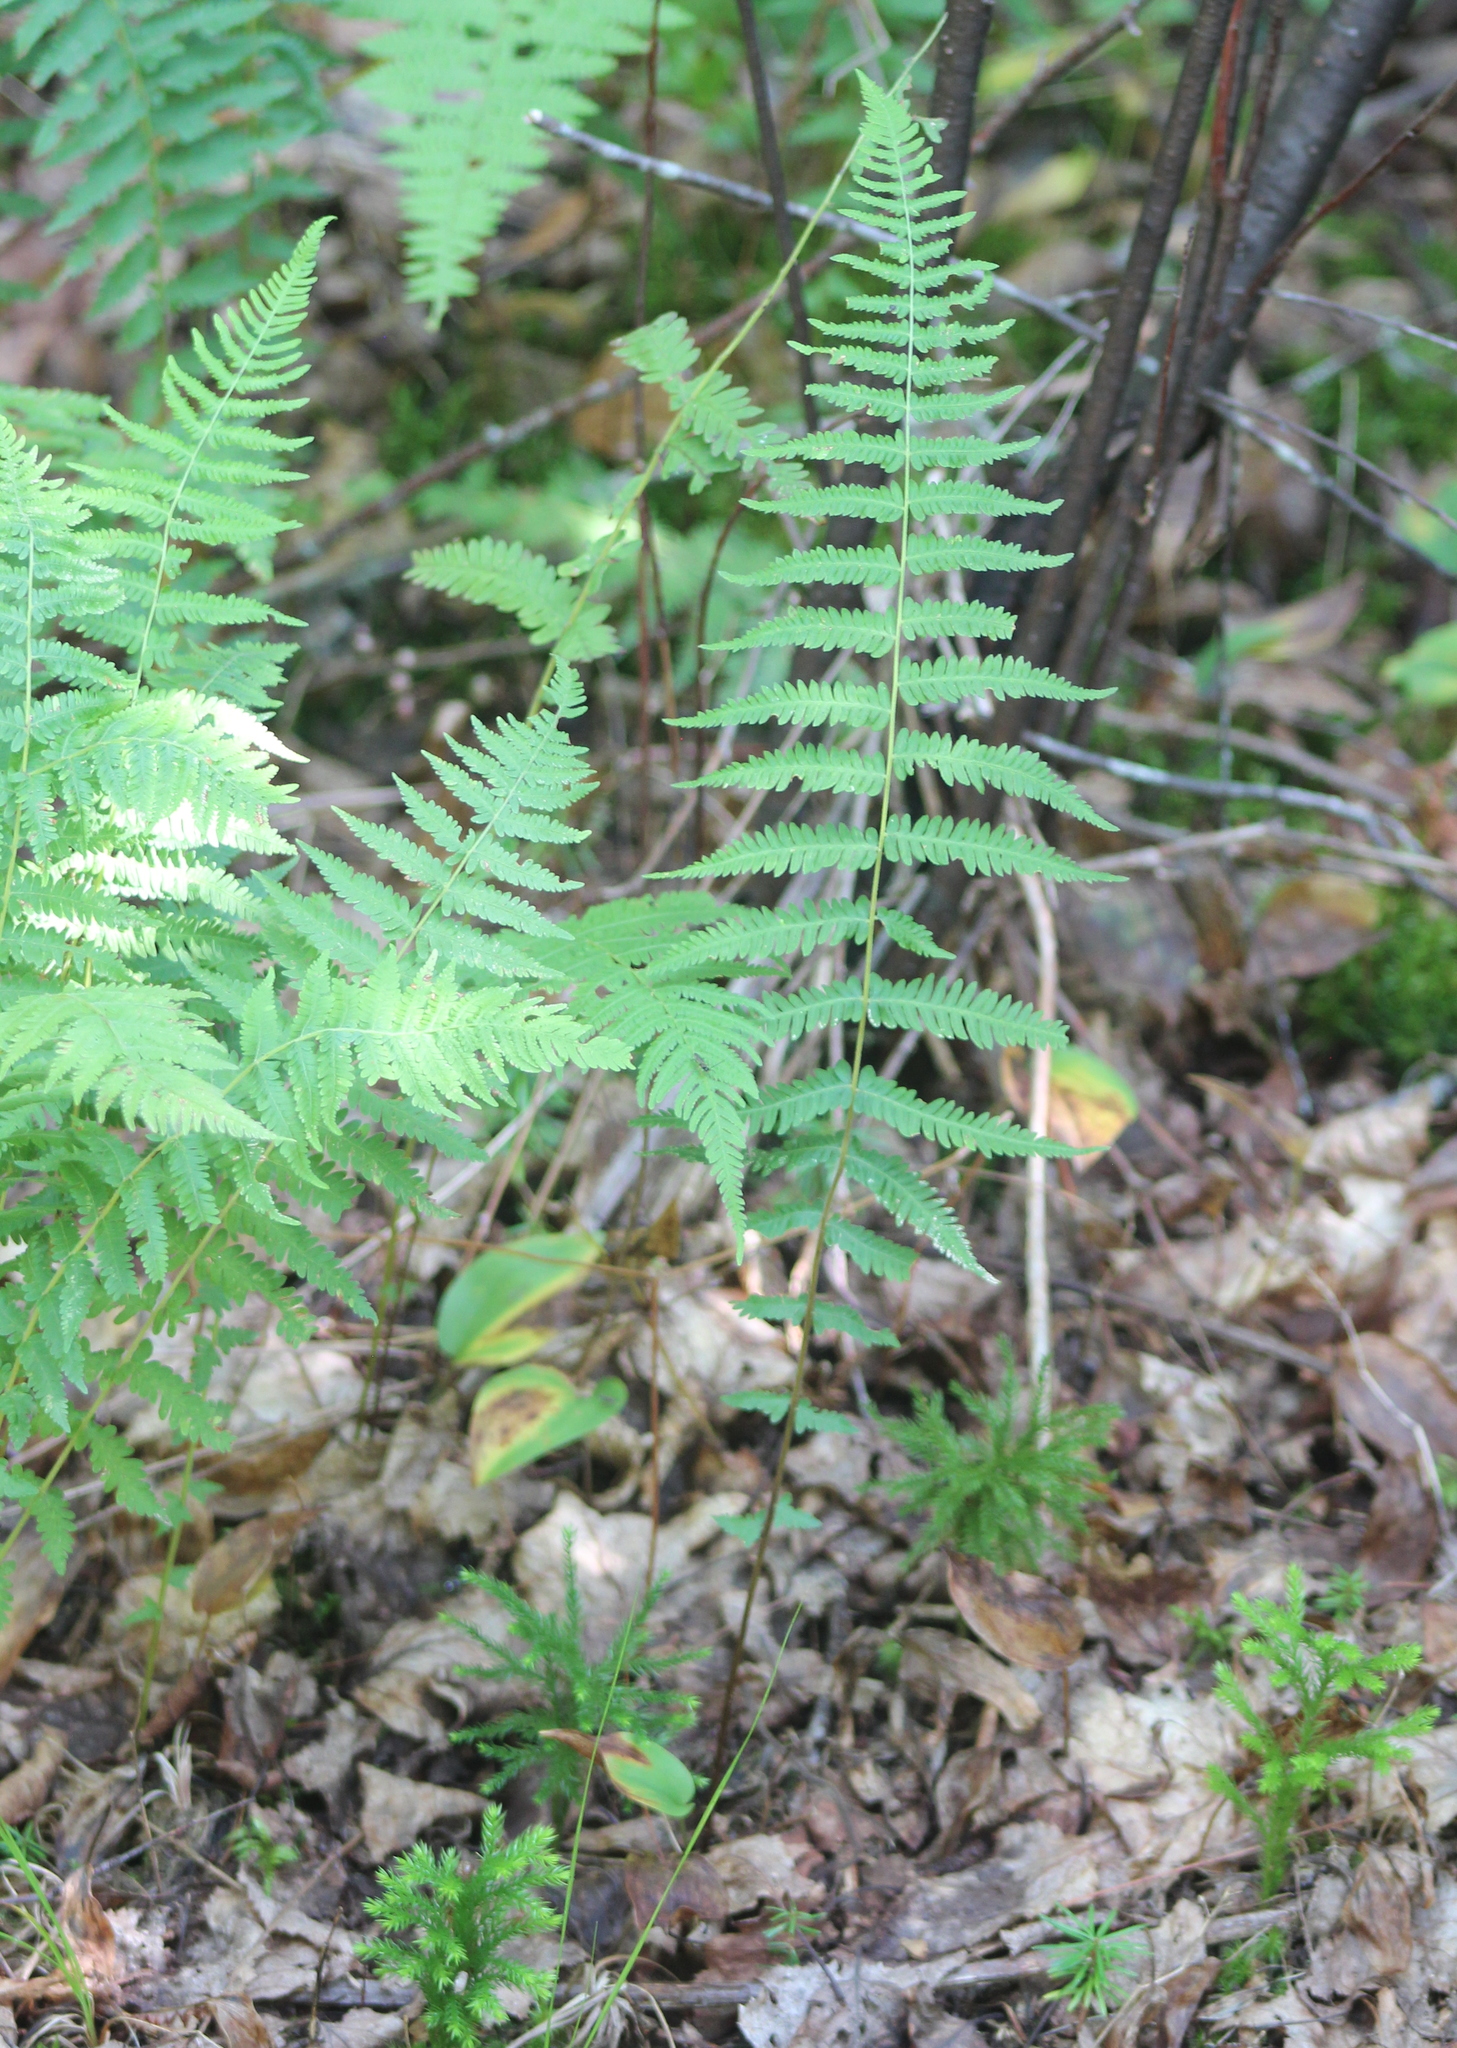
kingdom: Plantae
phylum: Tracheophyta
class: Polypodiopsida
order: Polypodiales
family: Thelypteridaceae
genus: Amauropelta
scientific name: Amauropelta noveboracensis
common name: New york fern
